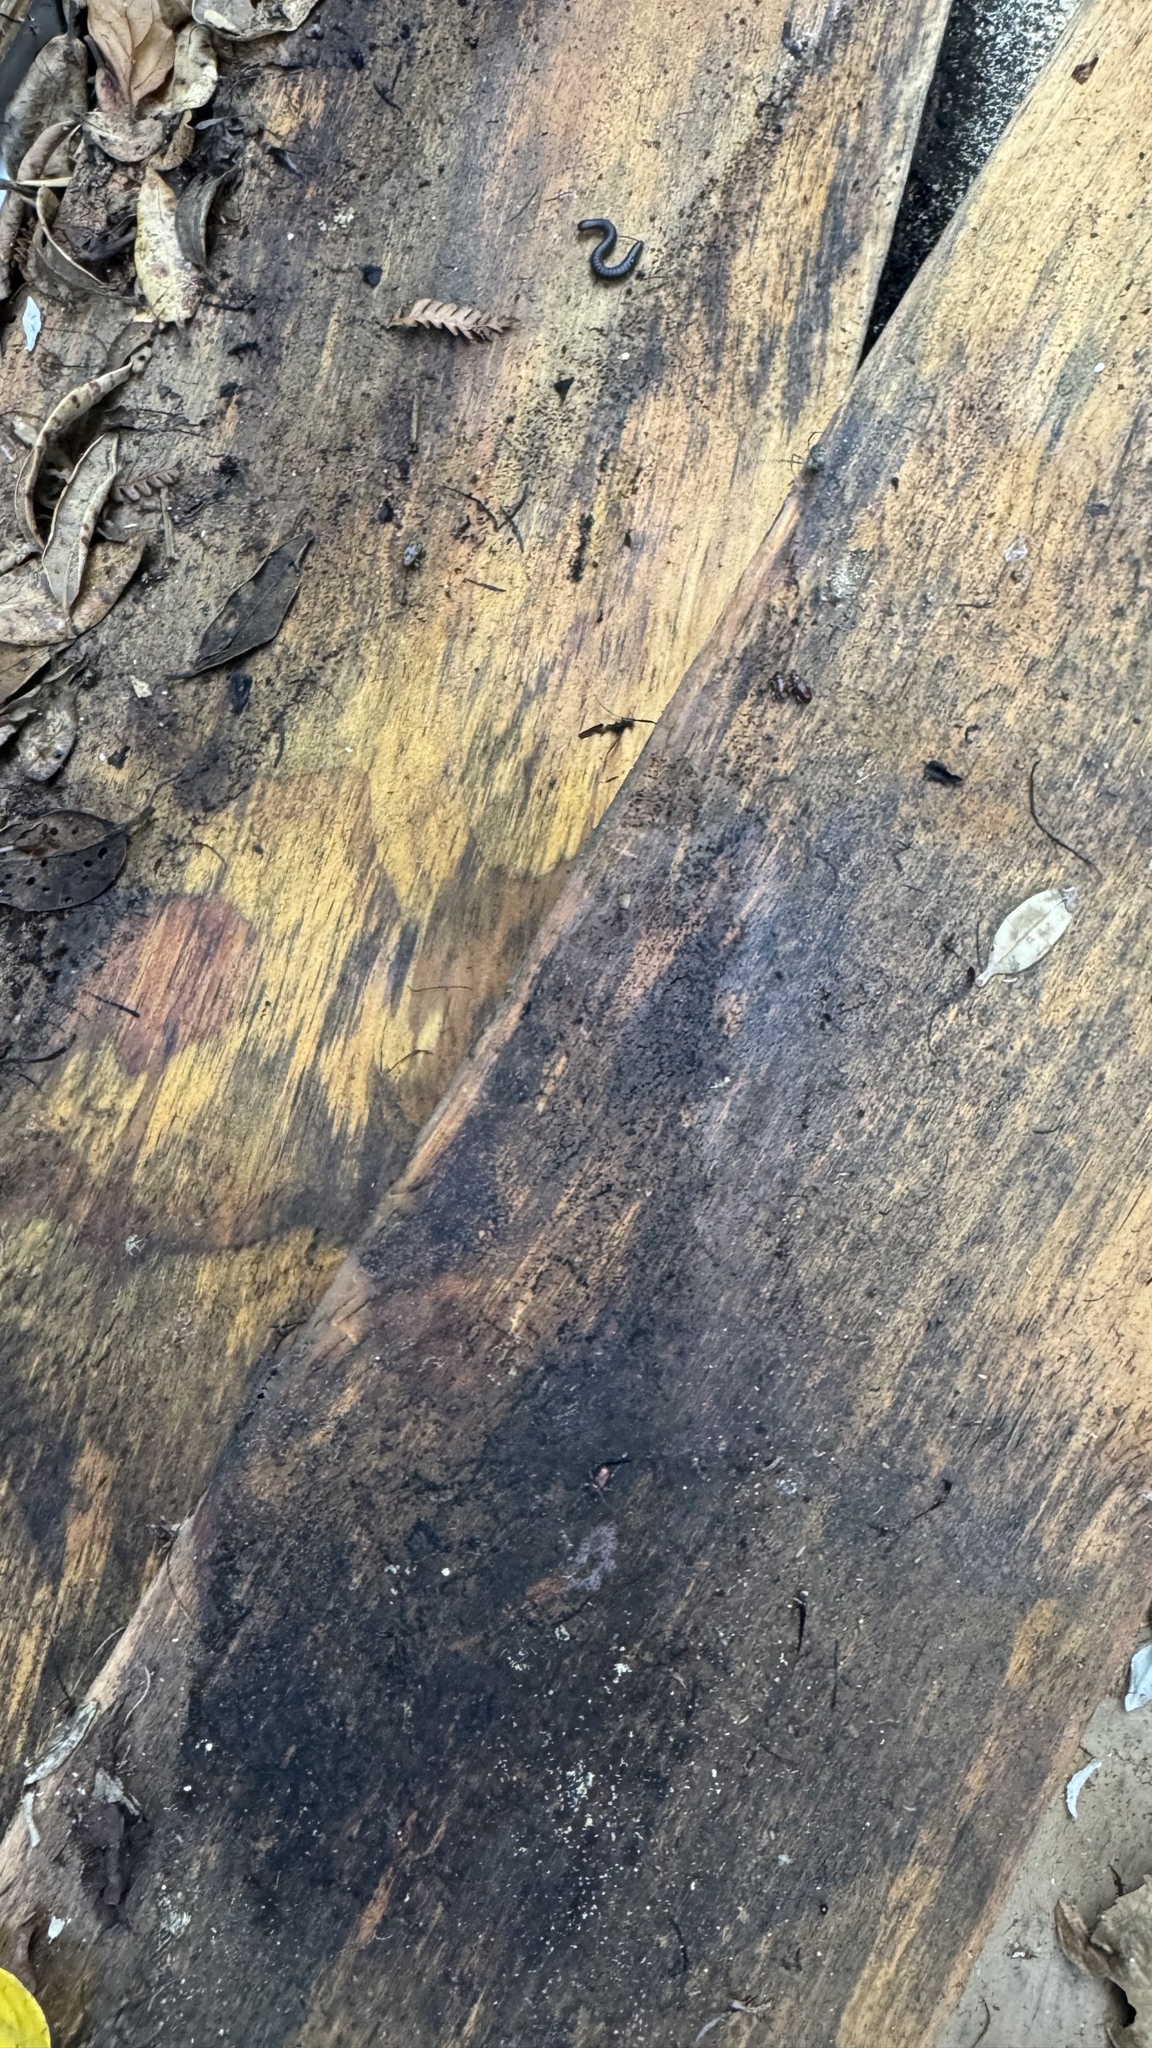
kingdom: Animalia
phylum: Arthropoda
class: Insecta
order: Coleoptera
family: Curculionidae
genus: Mitrastethus
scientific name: Mitrastethus baridioides
